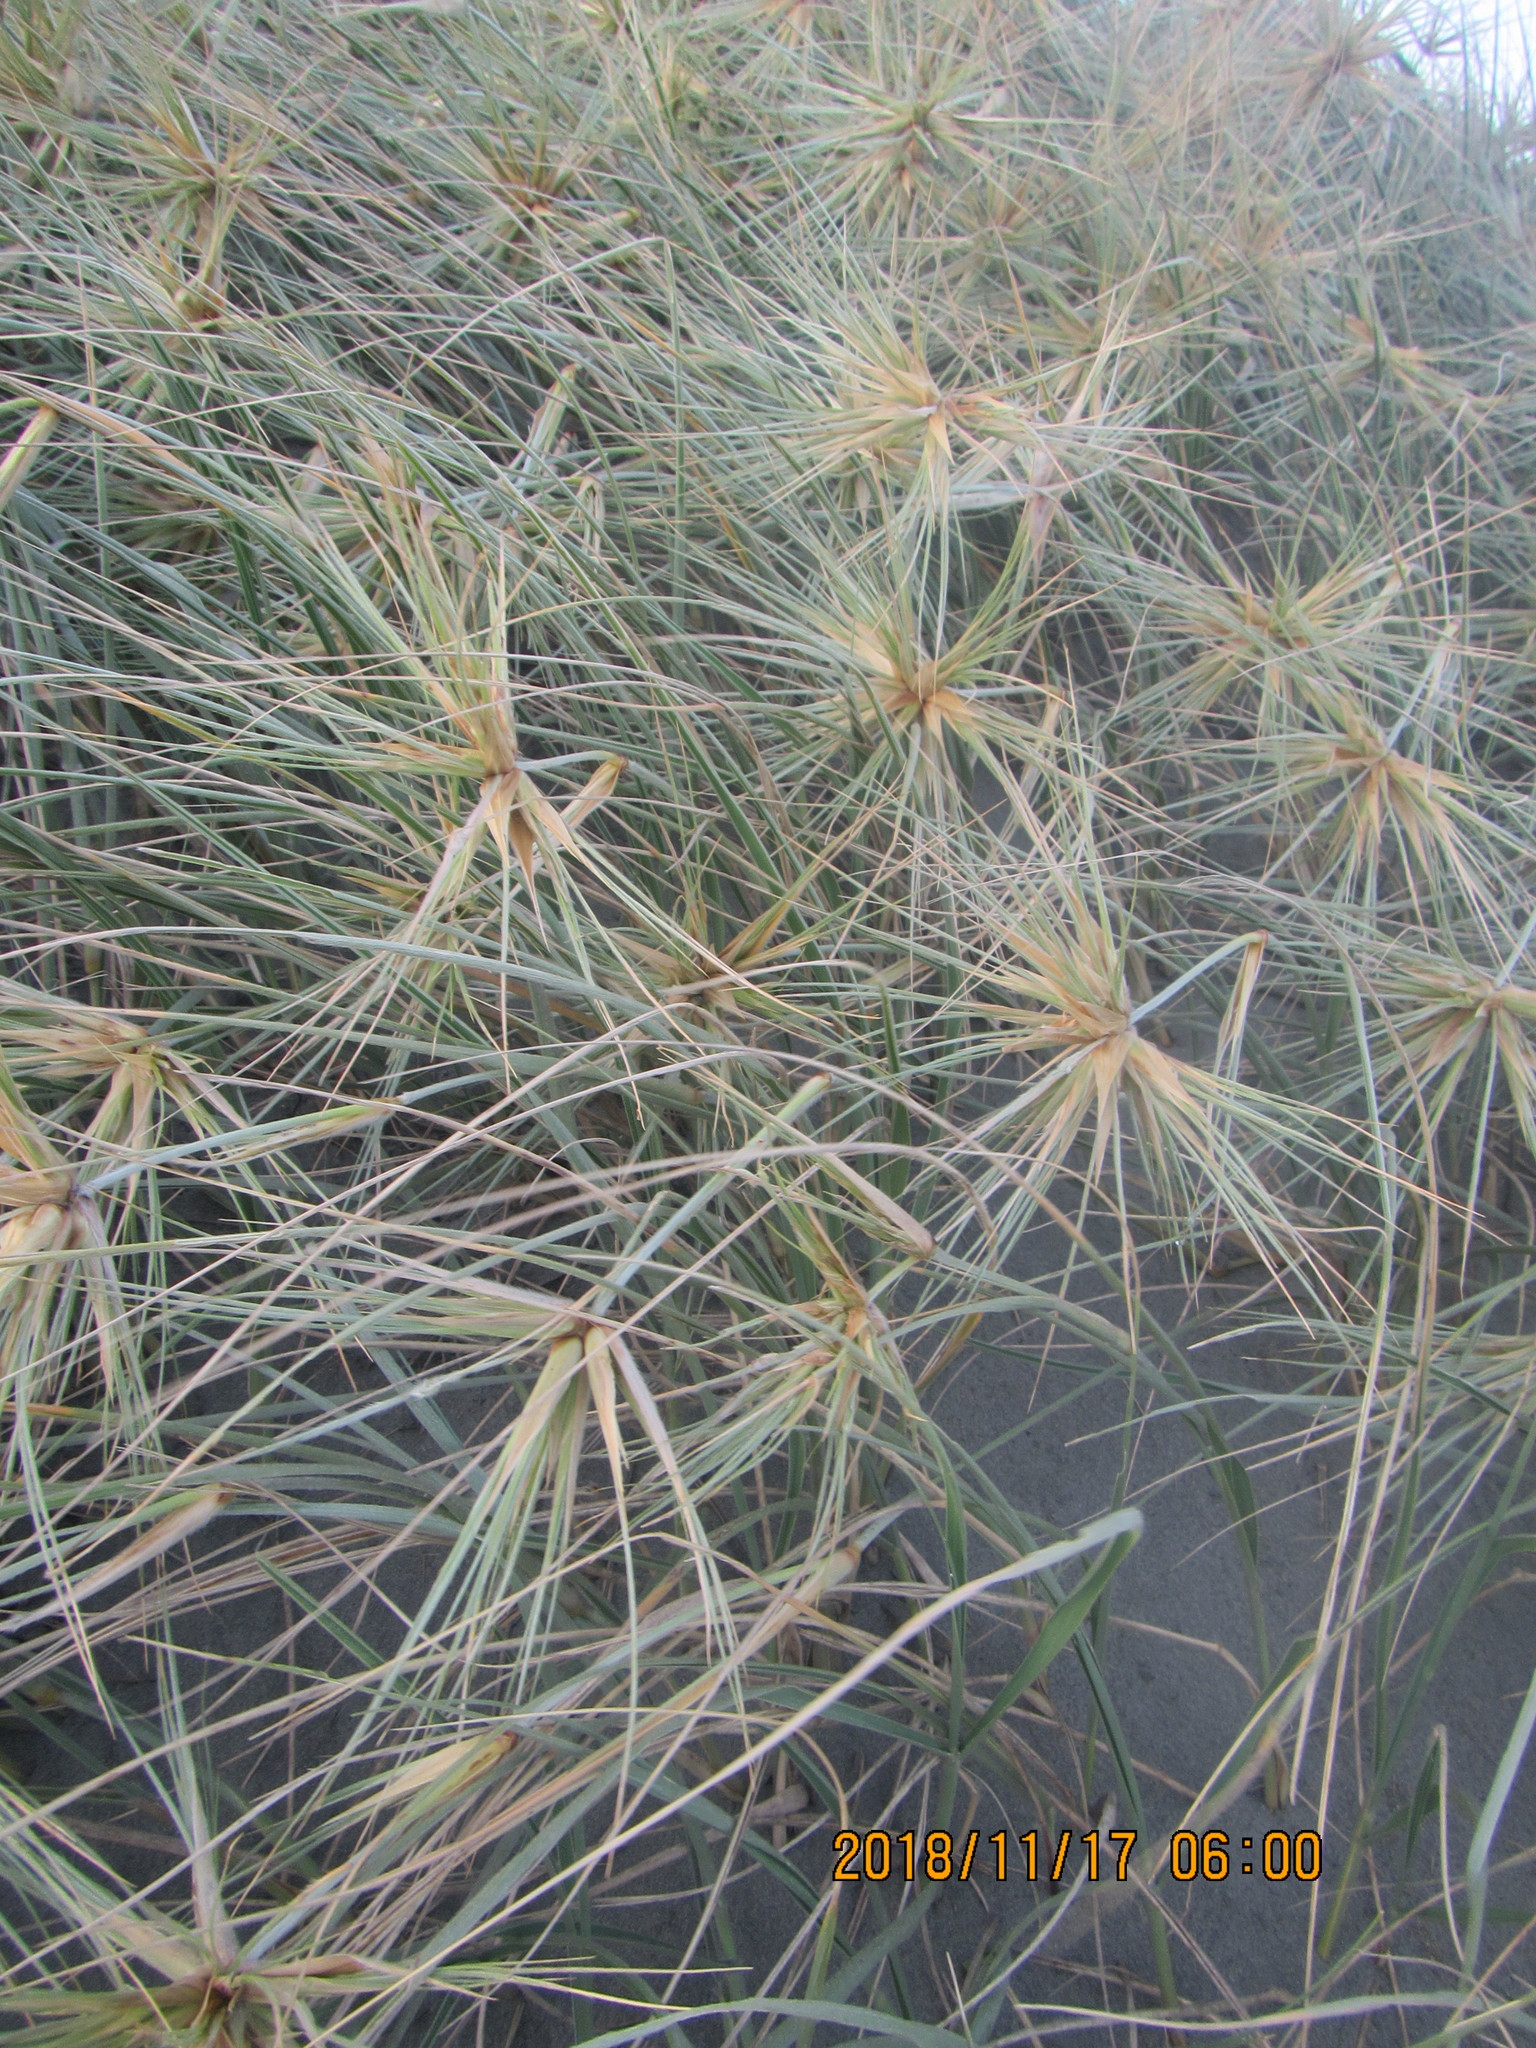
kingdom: Plantae
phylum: Tracheophyta
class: Liliopsida
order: Poales
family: Poaceae
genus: Spinifex
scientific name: Spinifex sericeus
